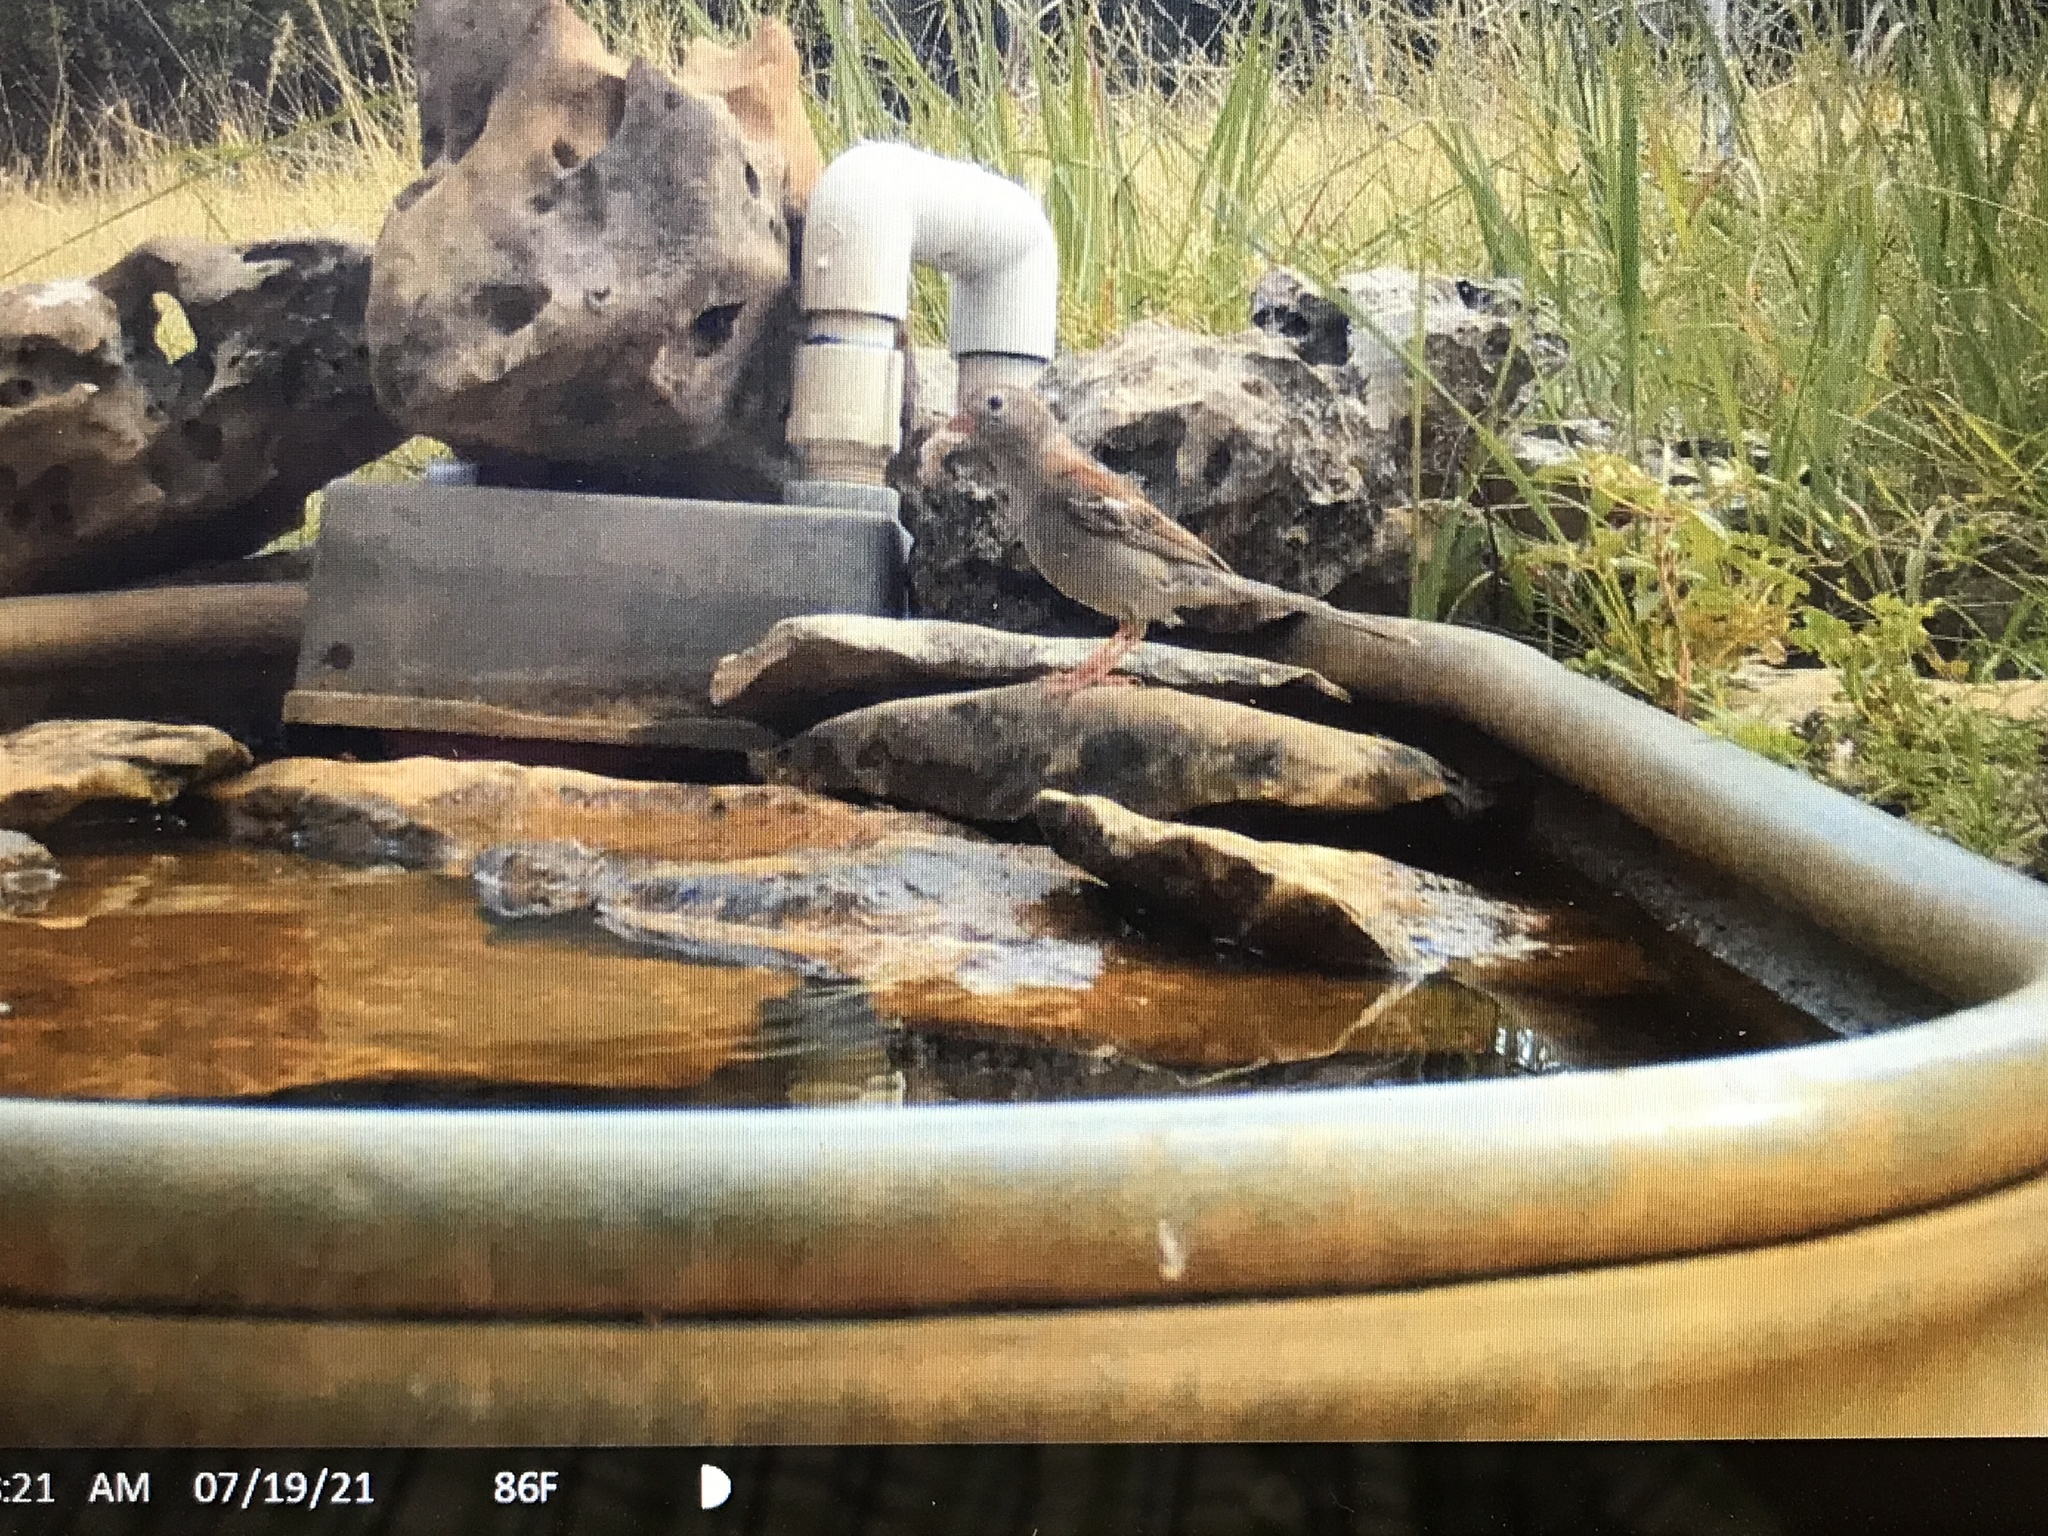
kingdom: Animalia
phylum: Chordata
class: Aves
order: Passeriformes
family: Passerellidae
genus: Spizella
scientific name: Spizella pusilla
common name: Field sparrow
